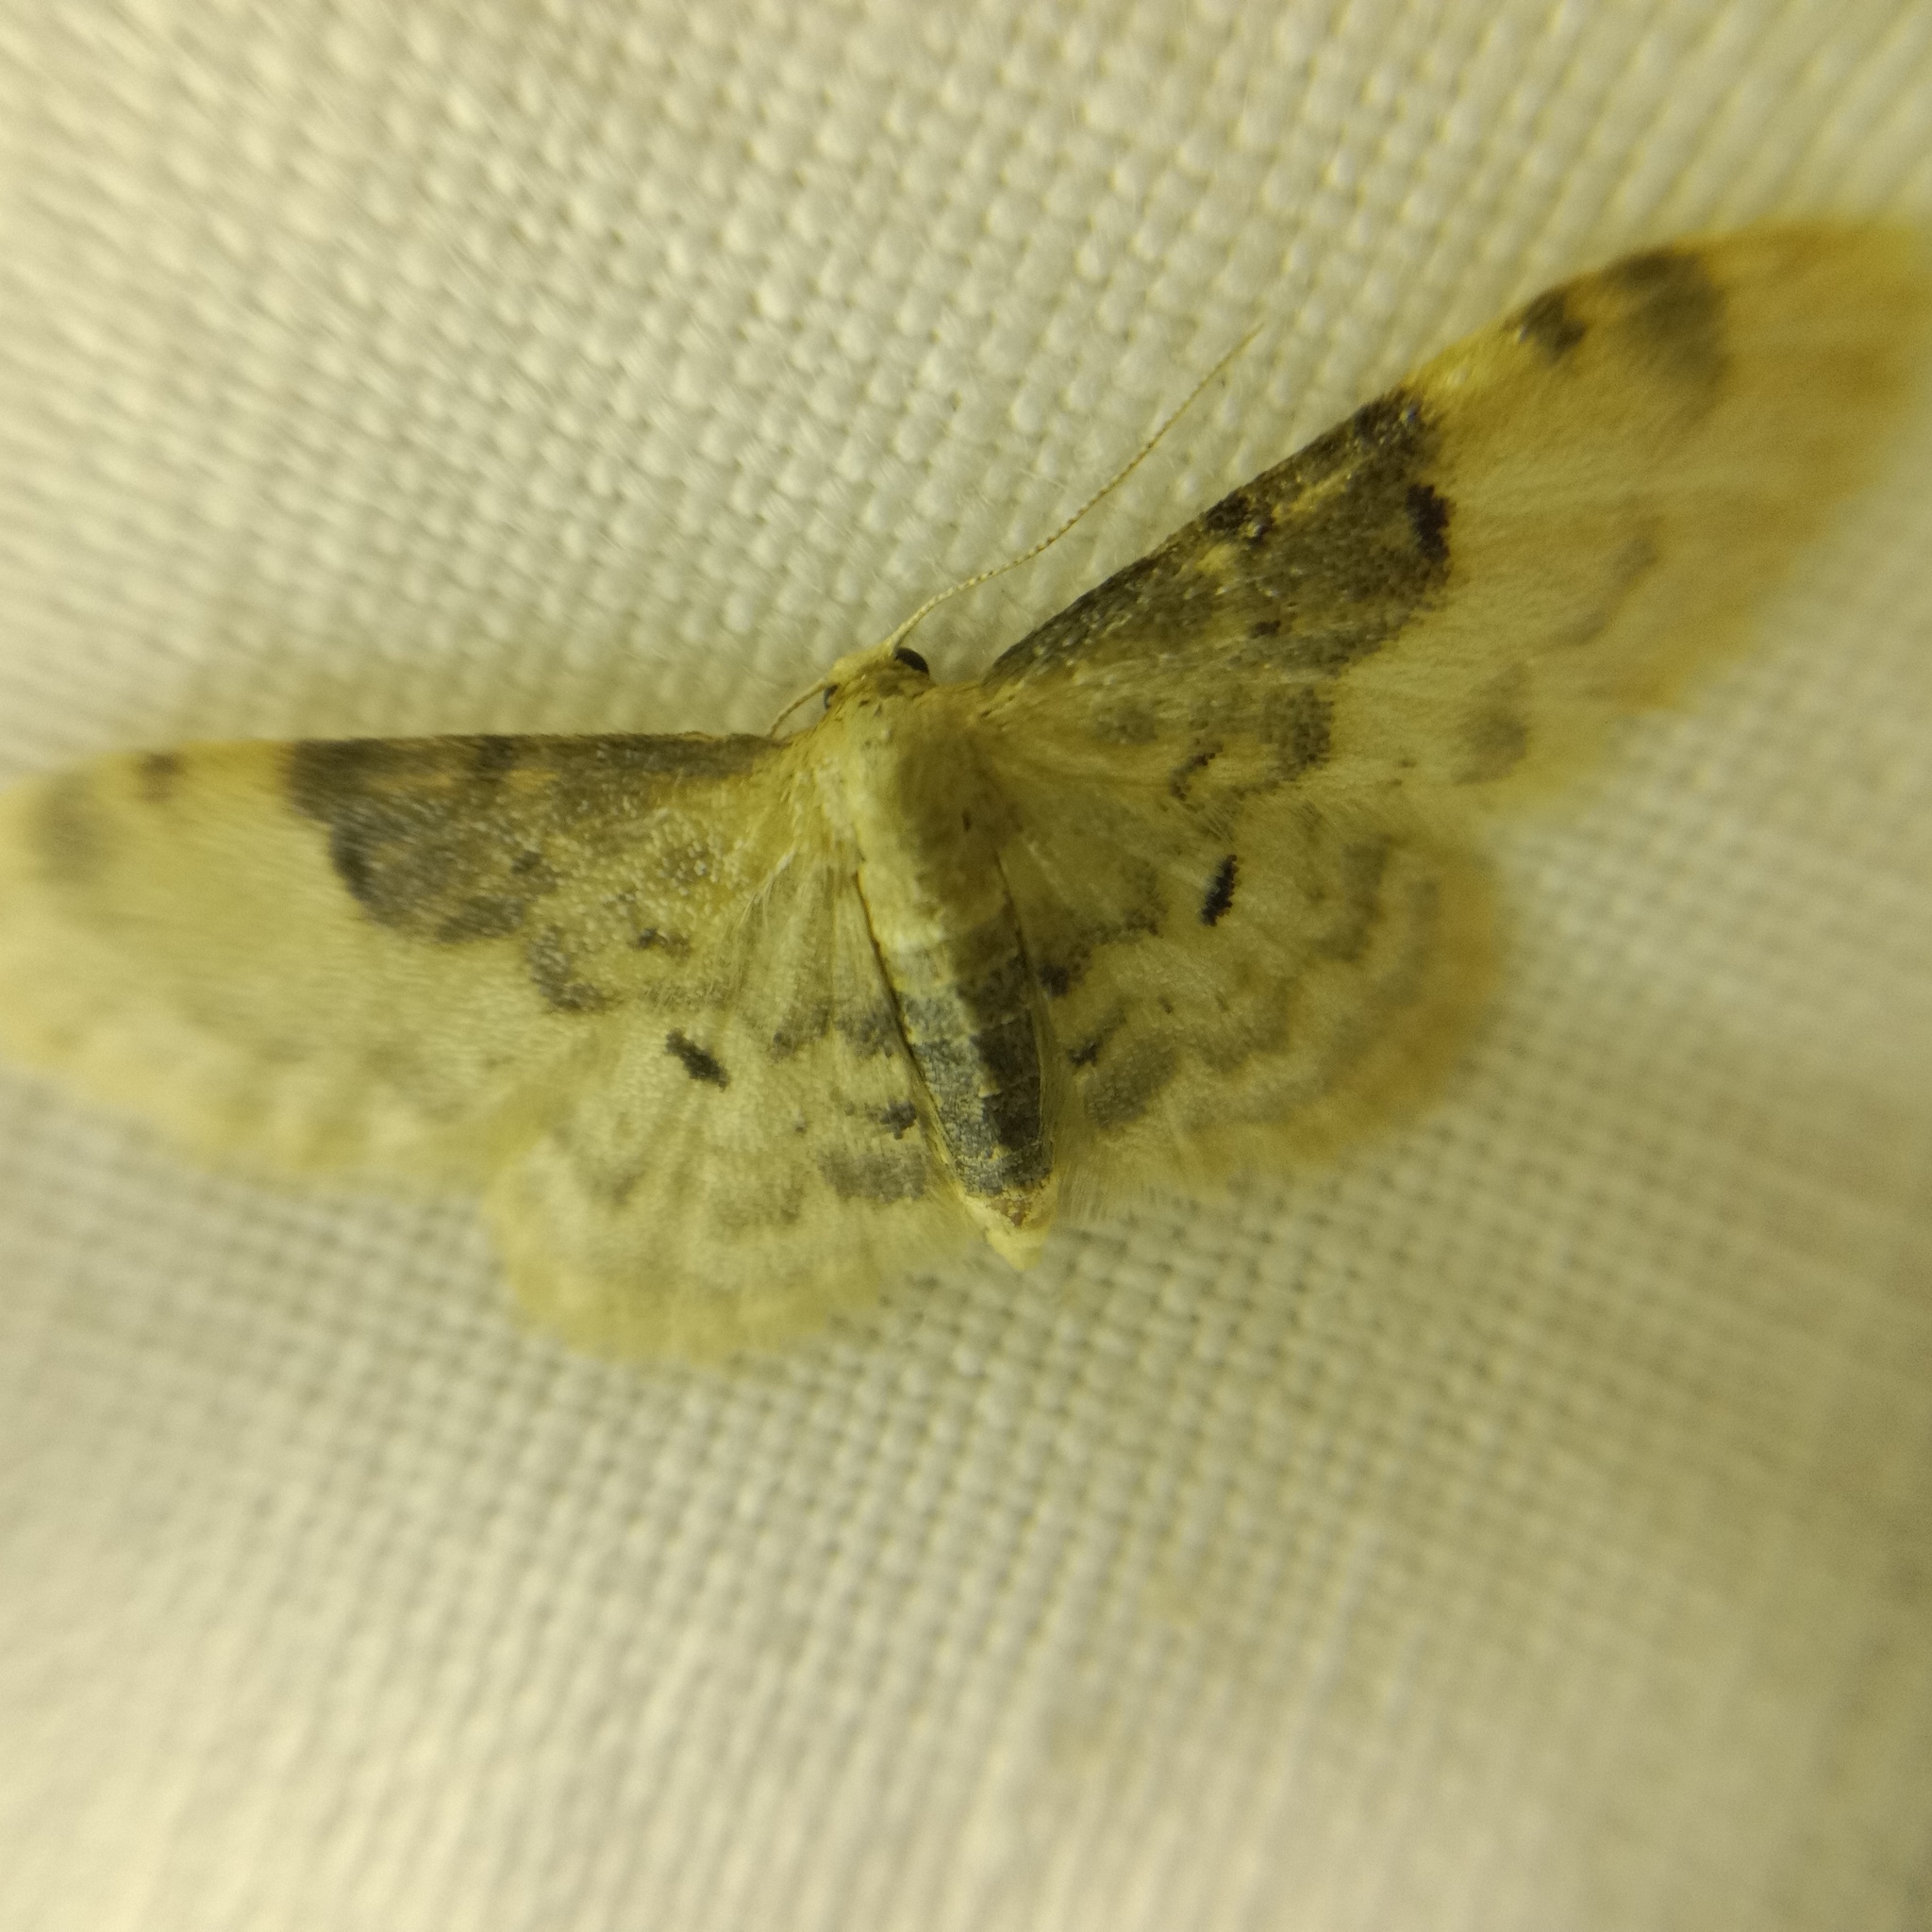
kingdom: Animalia
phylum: Arthropoda
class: Insecta
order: Lepidoptera
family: Geometridae
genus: Idaea
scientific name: Idaea filicata
